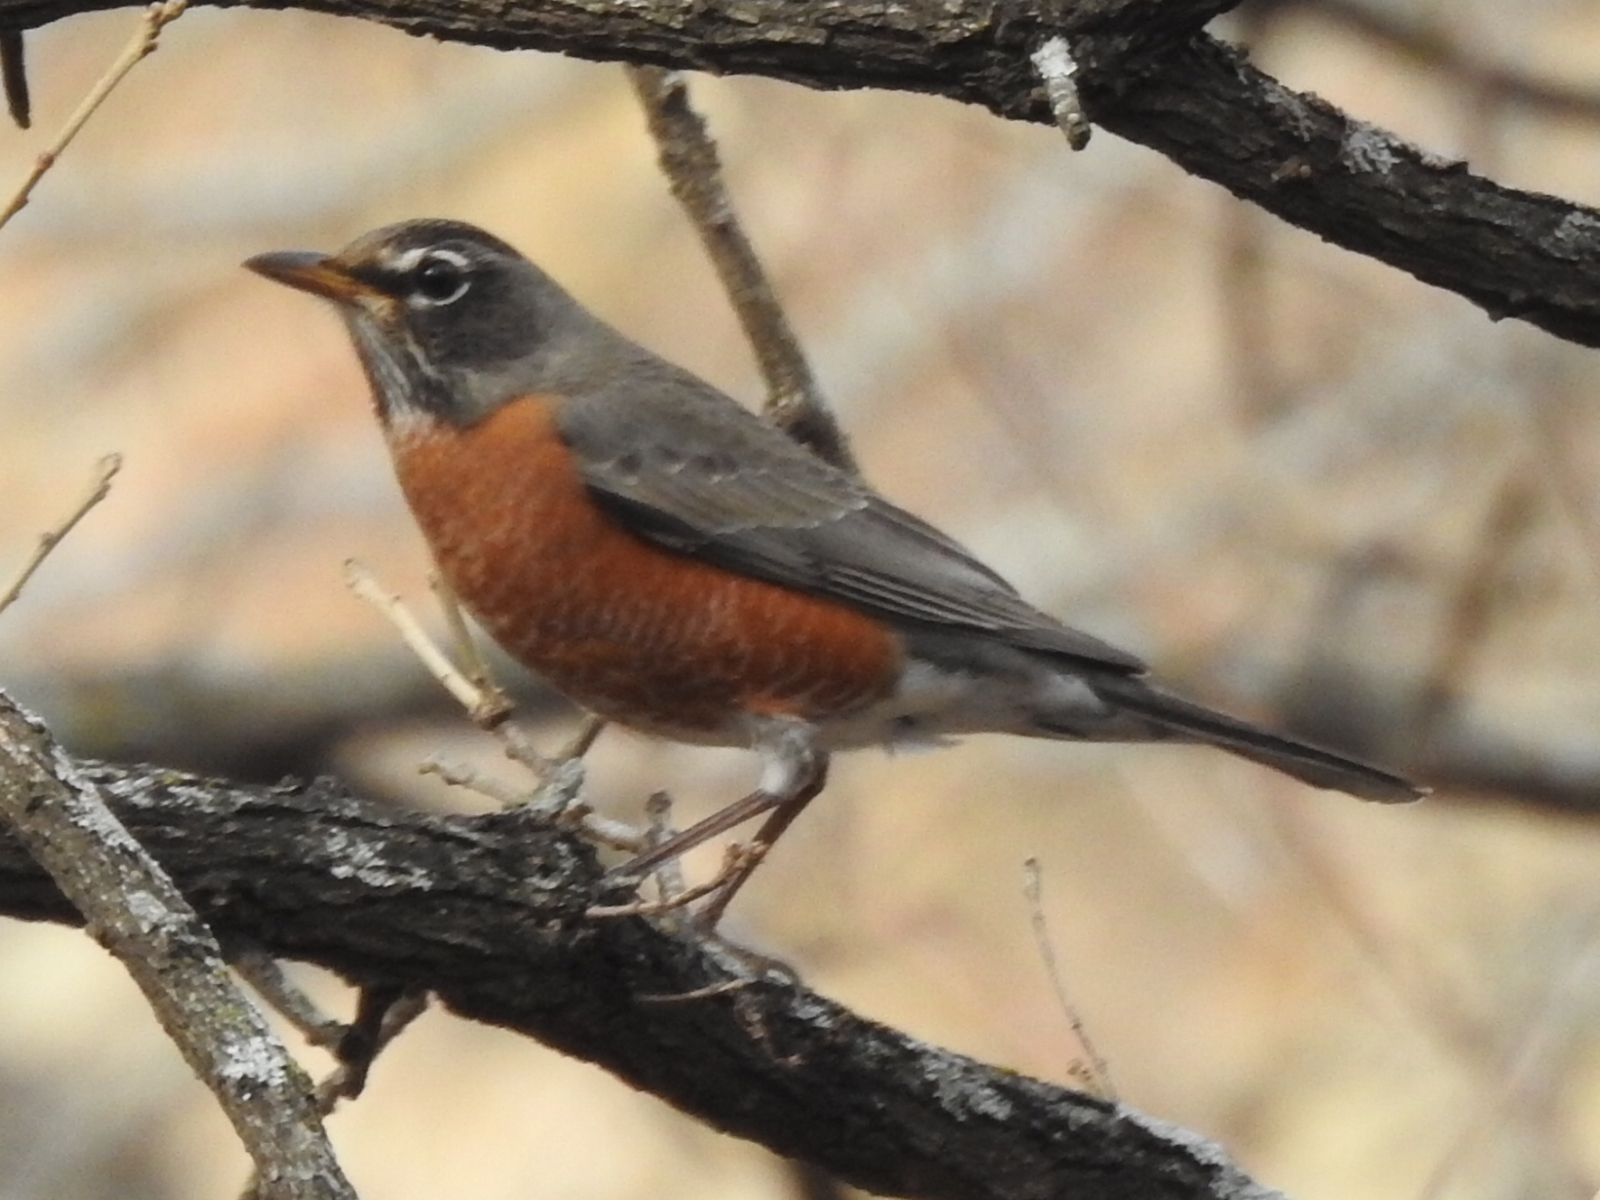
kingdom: Animalia
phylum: Chordata
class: Aves
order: Passeriformes
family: Turdidae
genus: Turdus
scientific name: Turdus migratorius
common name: American robin
